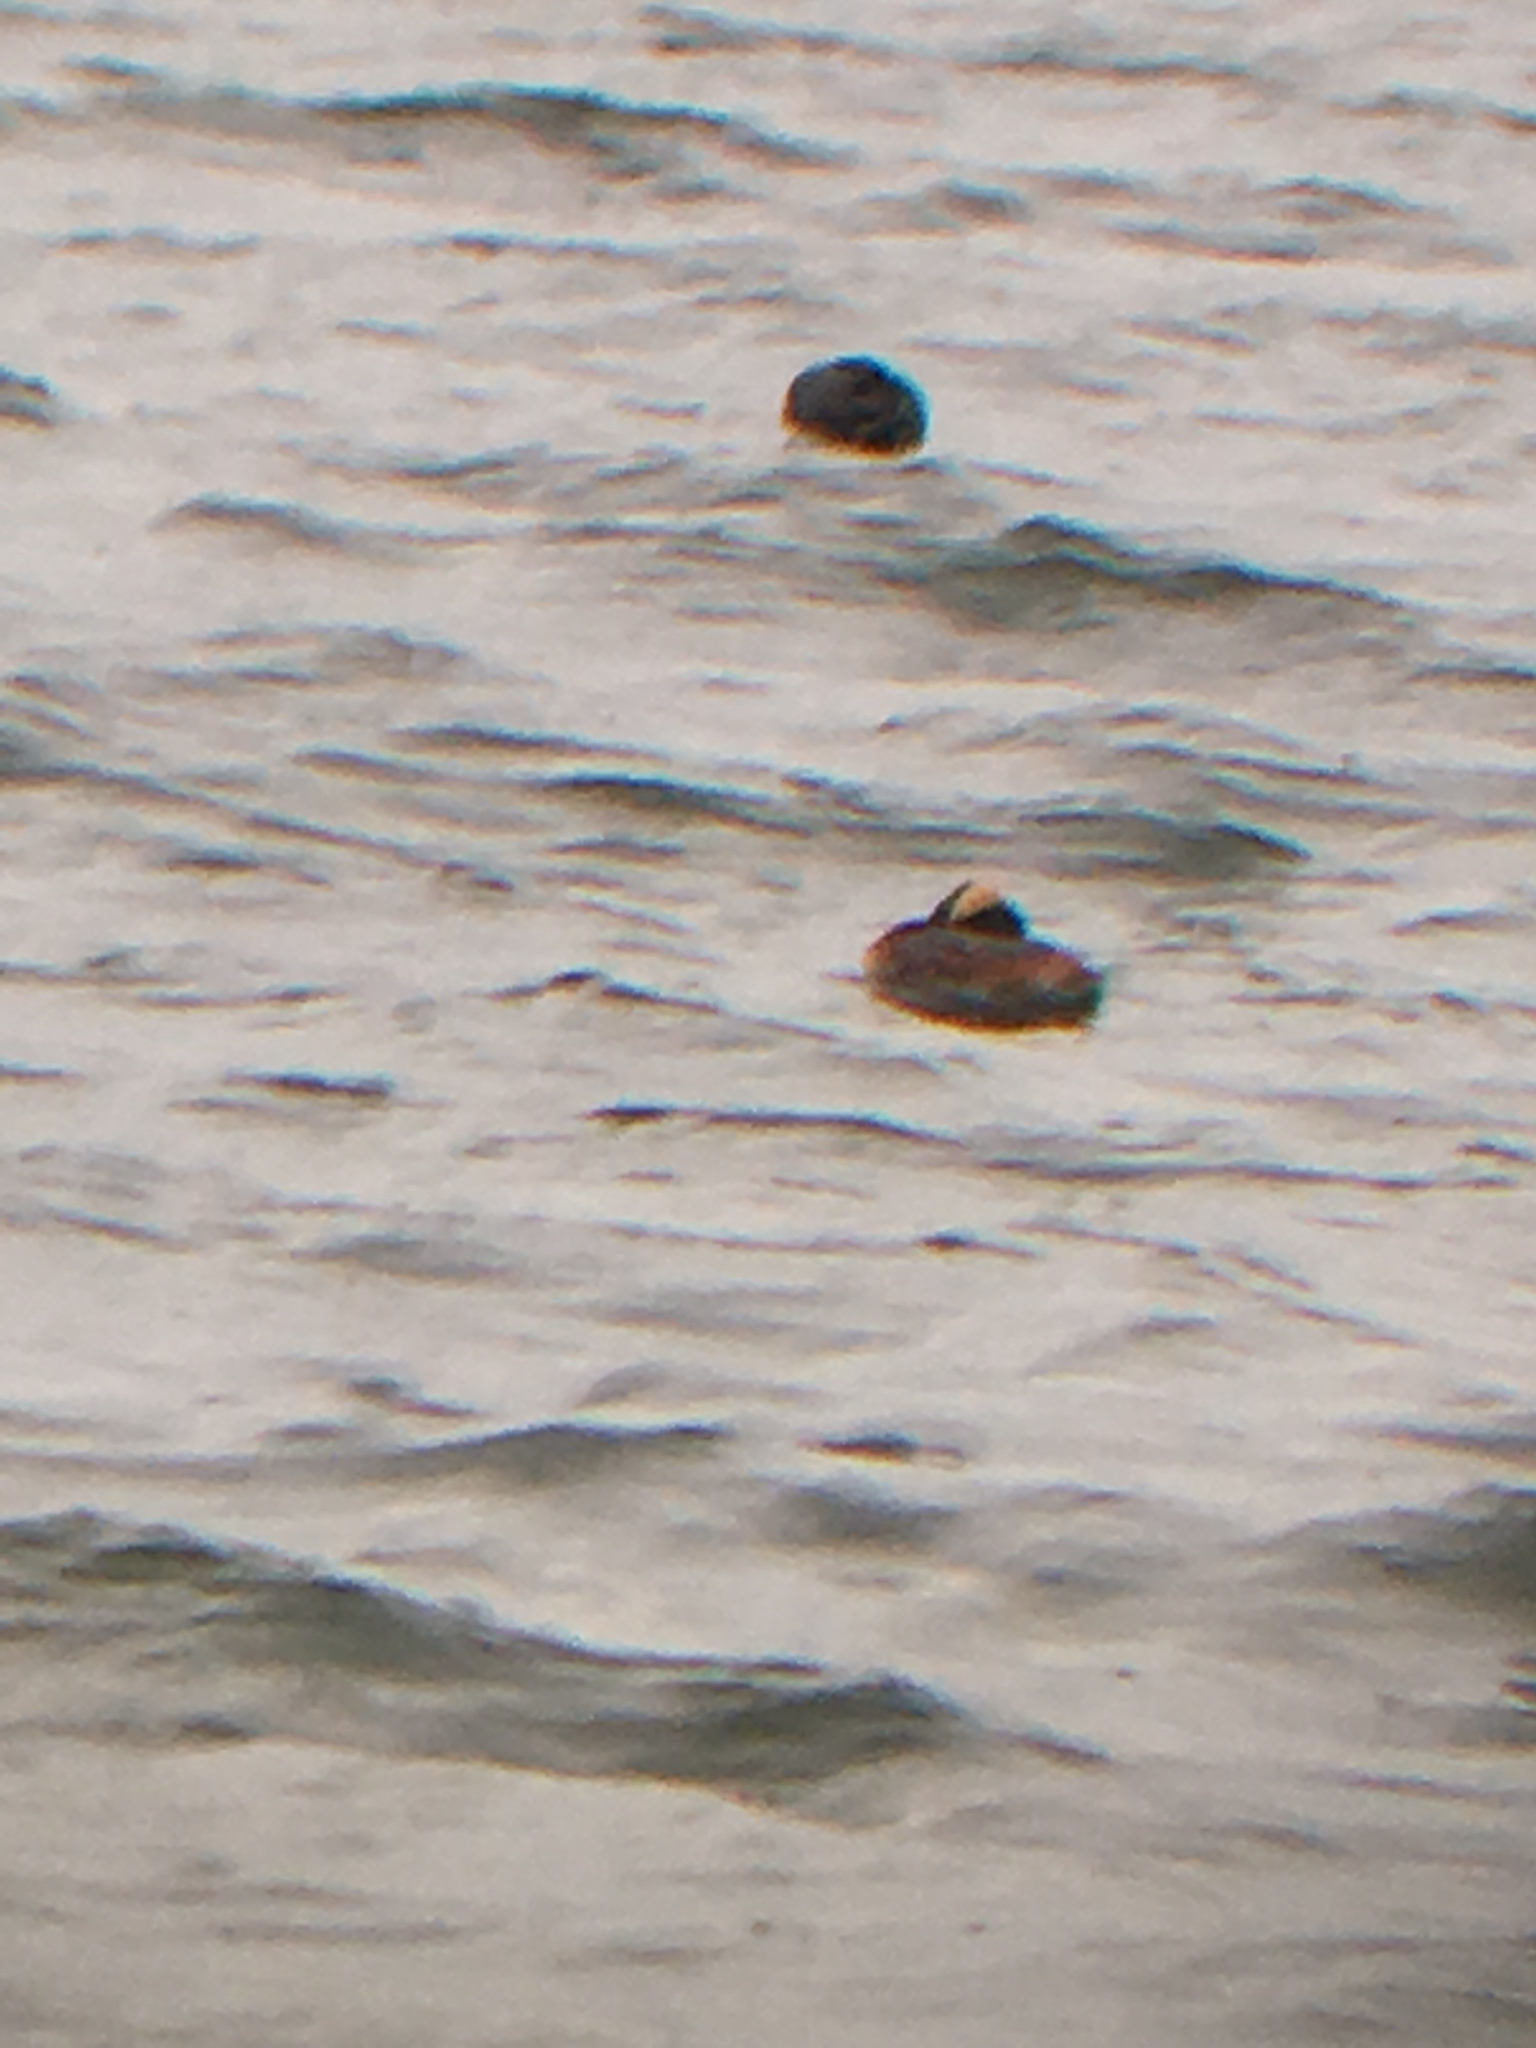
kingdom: Animalia
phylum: Chordata
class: Aves
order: Podicipediformes
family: Podicipedidae
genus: Podiceps
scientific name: Podiceps auritus
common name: Horned grebe
